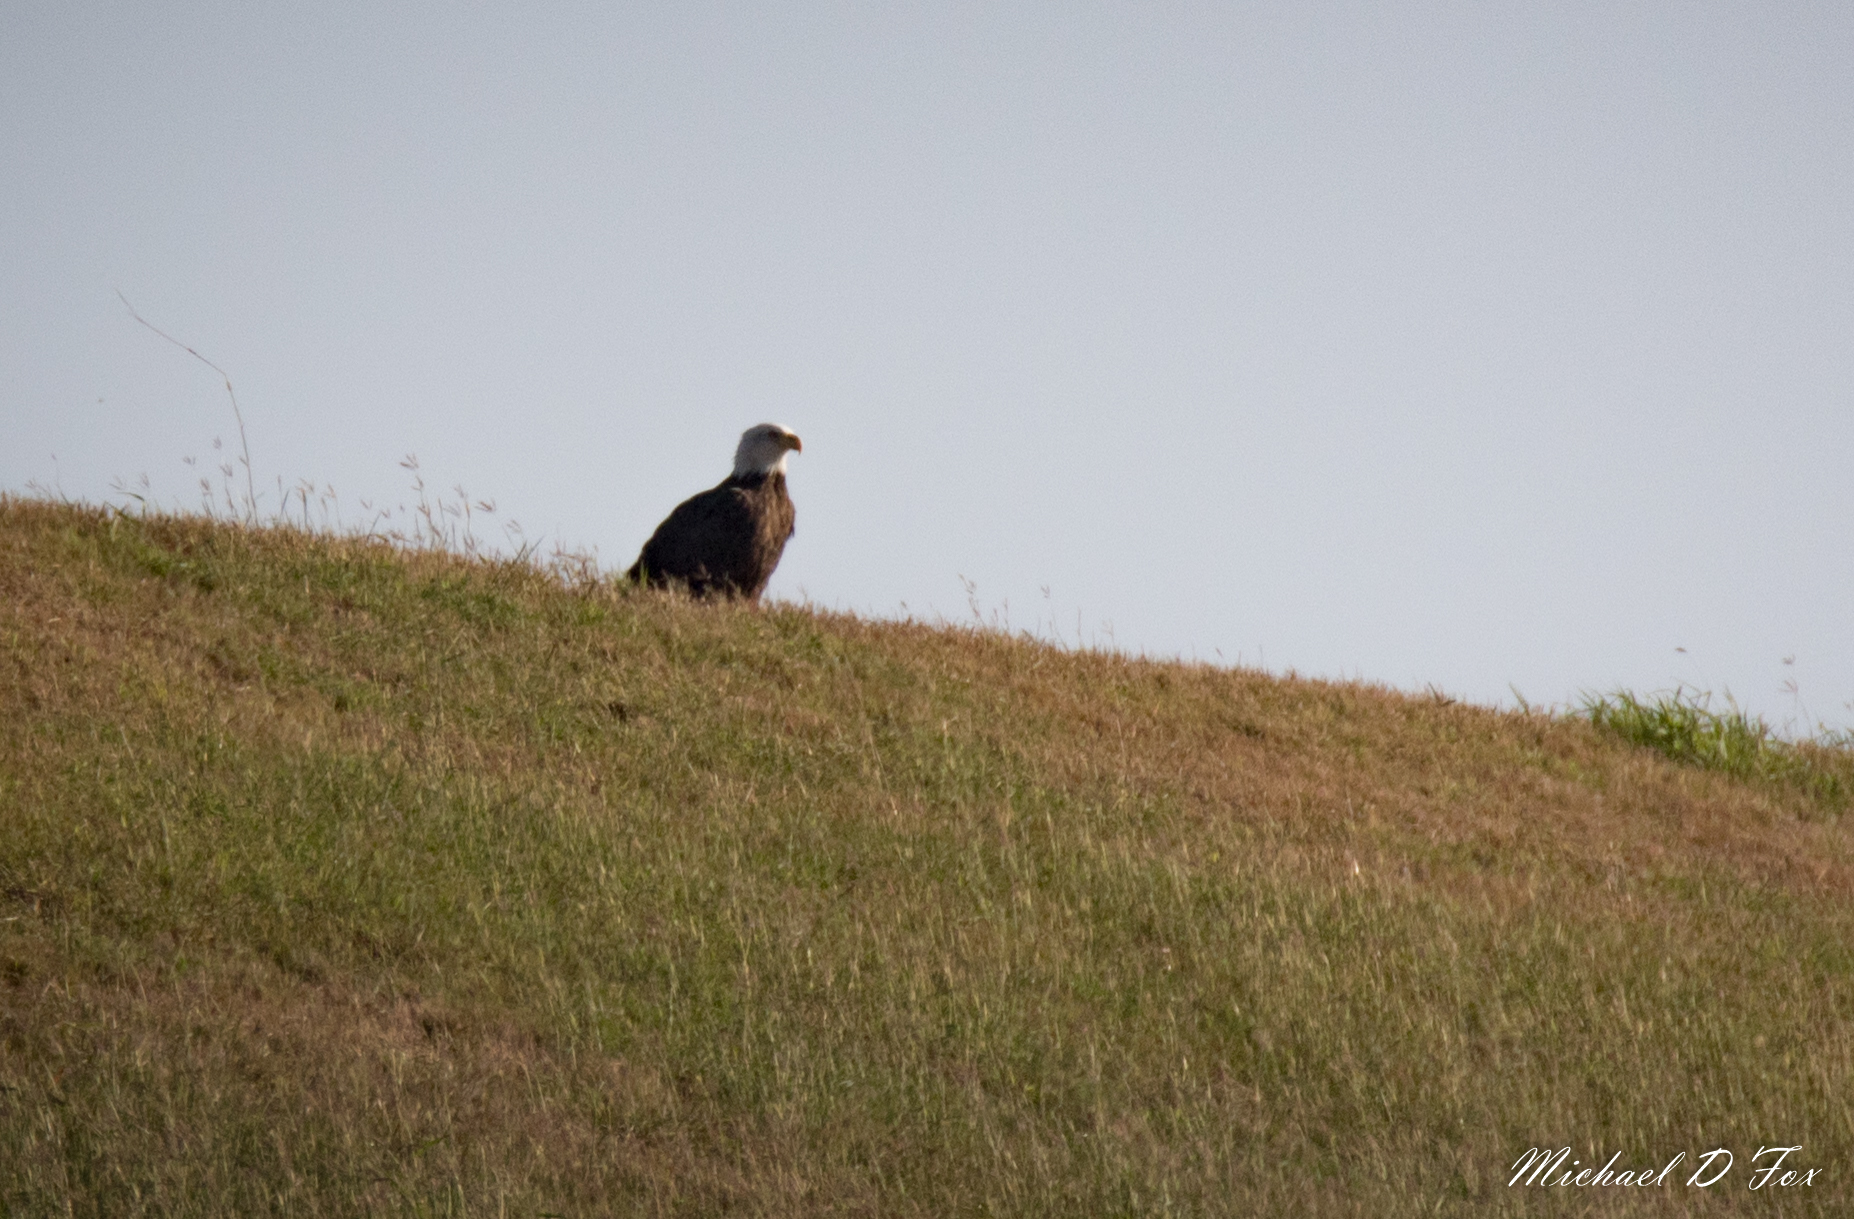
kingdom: Animalia
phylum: Chordata
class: Aves
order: Accipitriformes
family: Accipitridae
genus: Haliaeetus
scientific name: Haliaeetus leucocephalus
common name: Bald eagle
